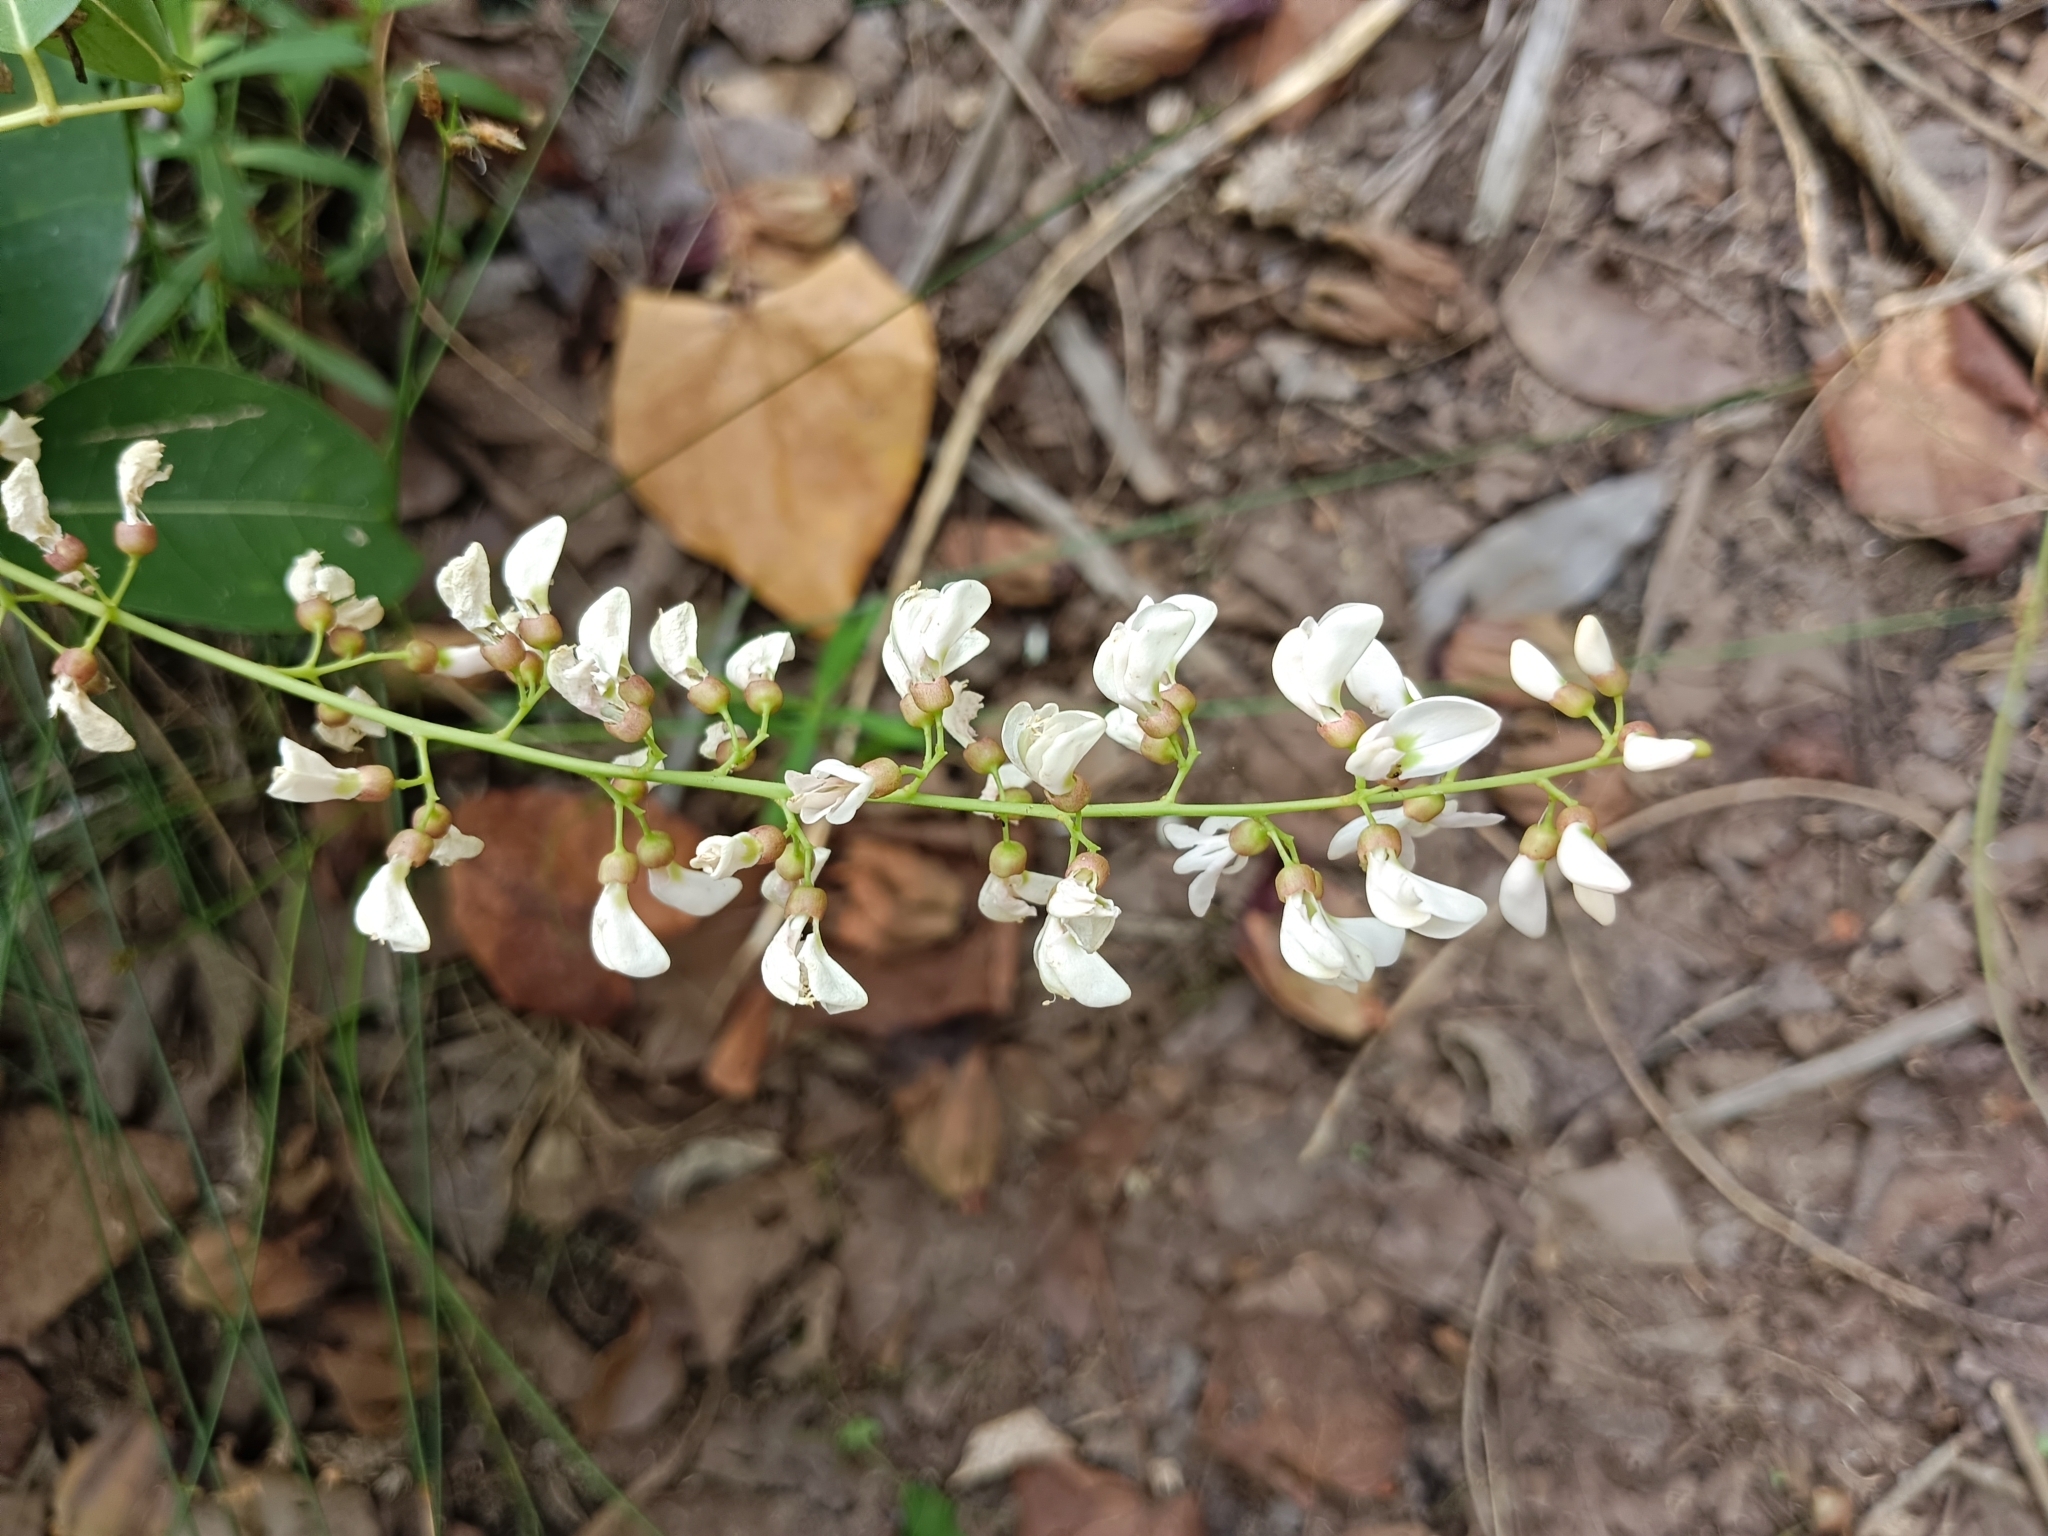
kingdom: Plantae
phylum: Tracheophyta
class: Magnoliopsida
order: Fabales
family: Fabaceae
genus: Derris
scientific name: Derris trifoliata
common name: Three-leaf derris
